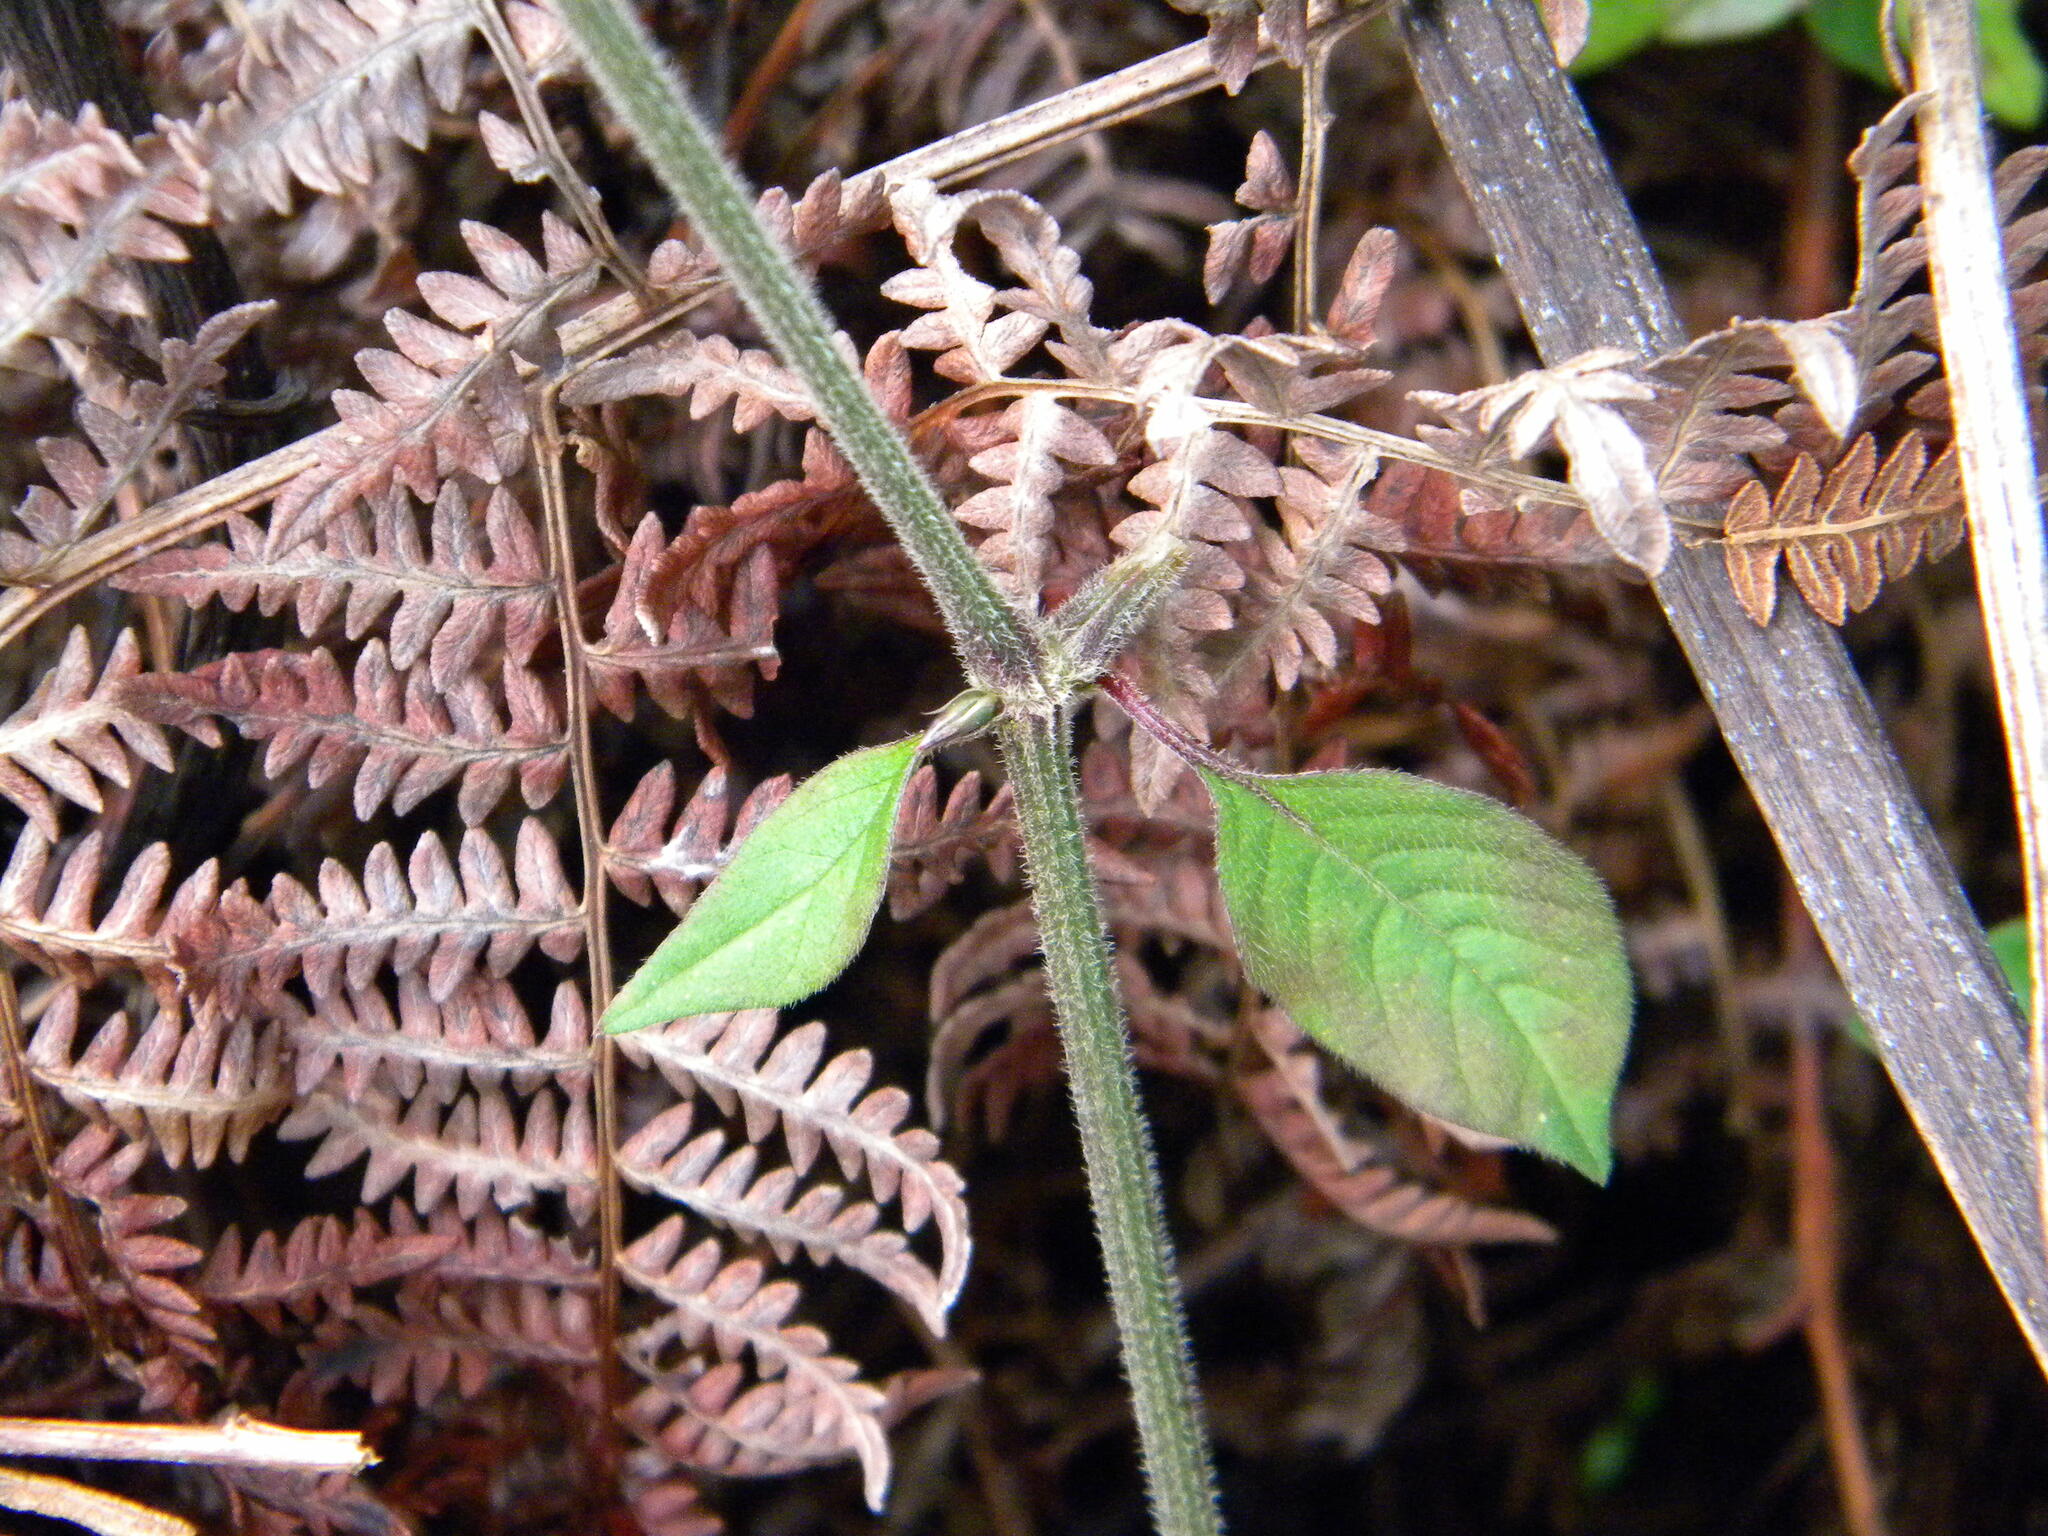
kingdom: Plantae
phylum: Tracheophyta
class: Magnoliopsida
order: Caryophyllales
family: Amaranthaceae
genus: Achyranthes
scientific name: Achyranthes aspera
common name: Devil's horsewhip
